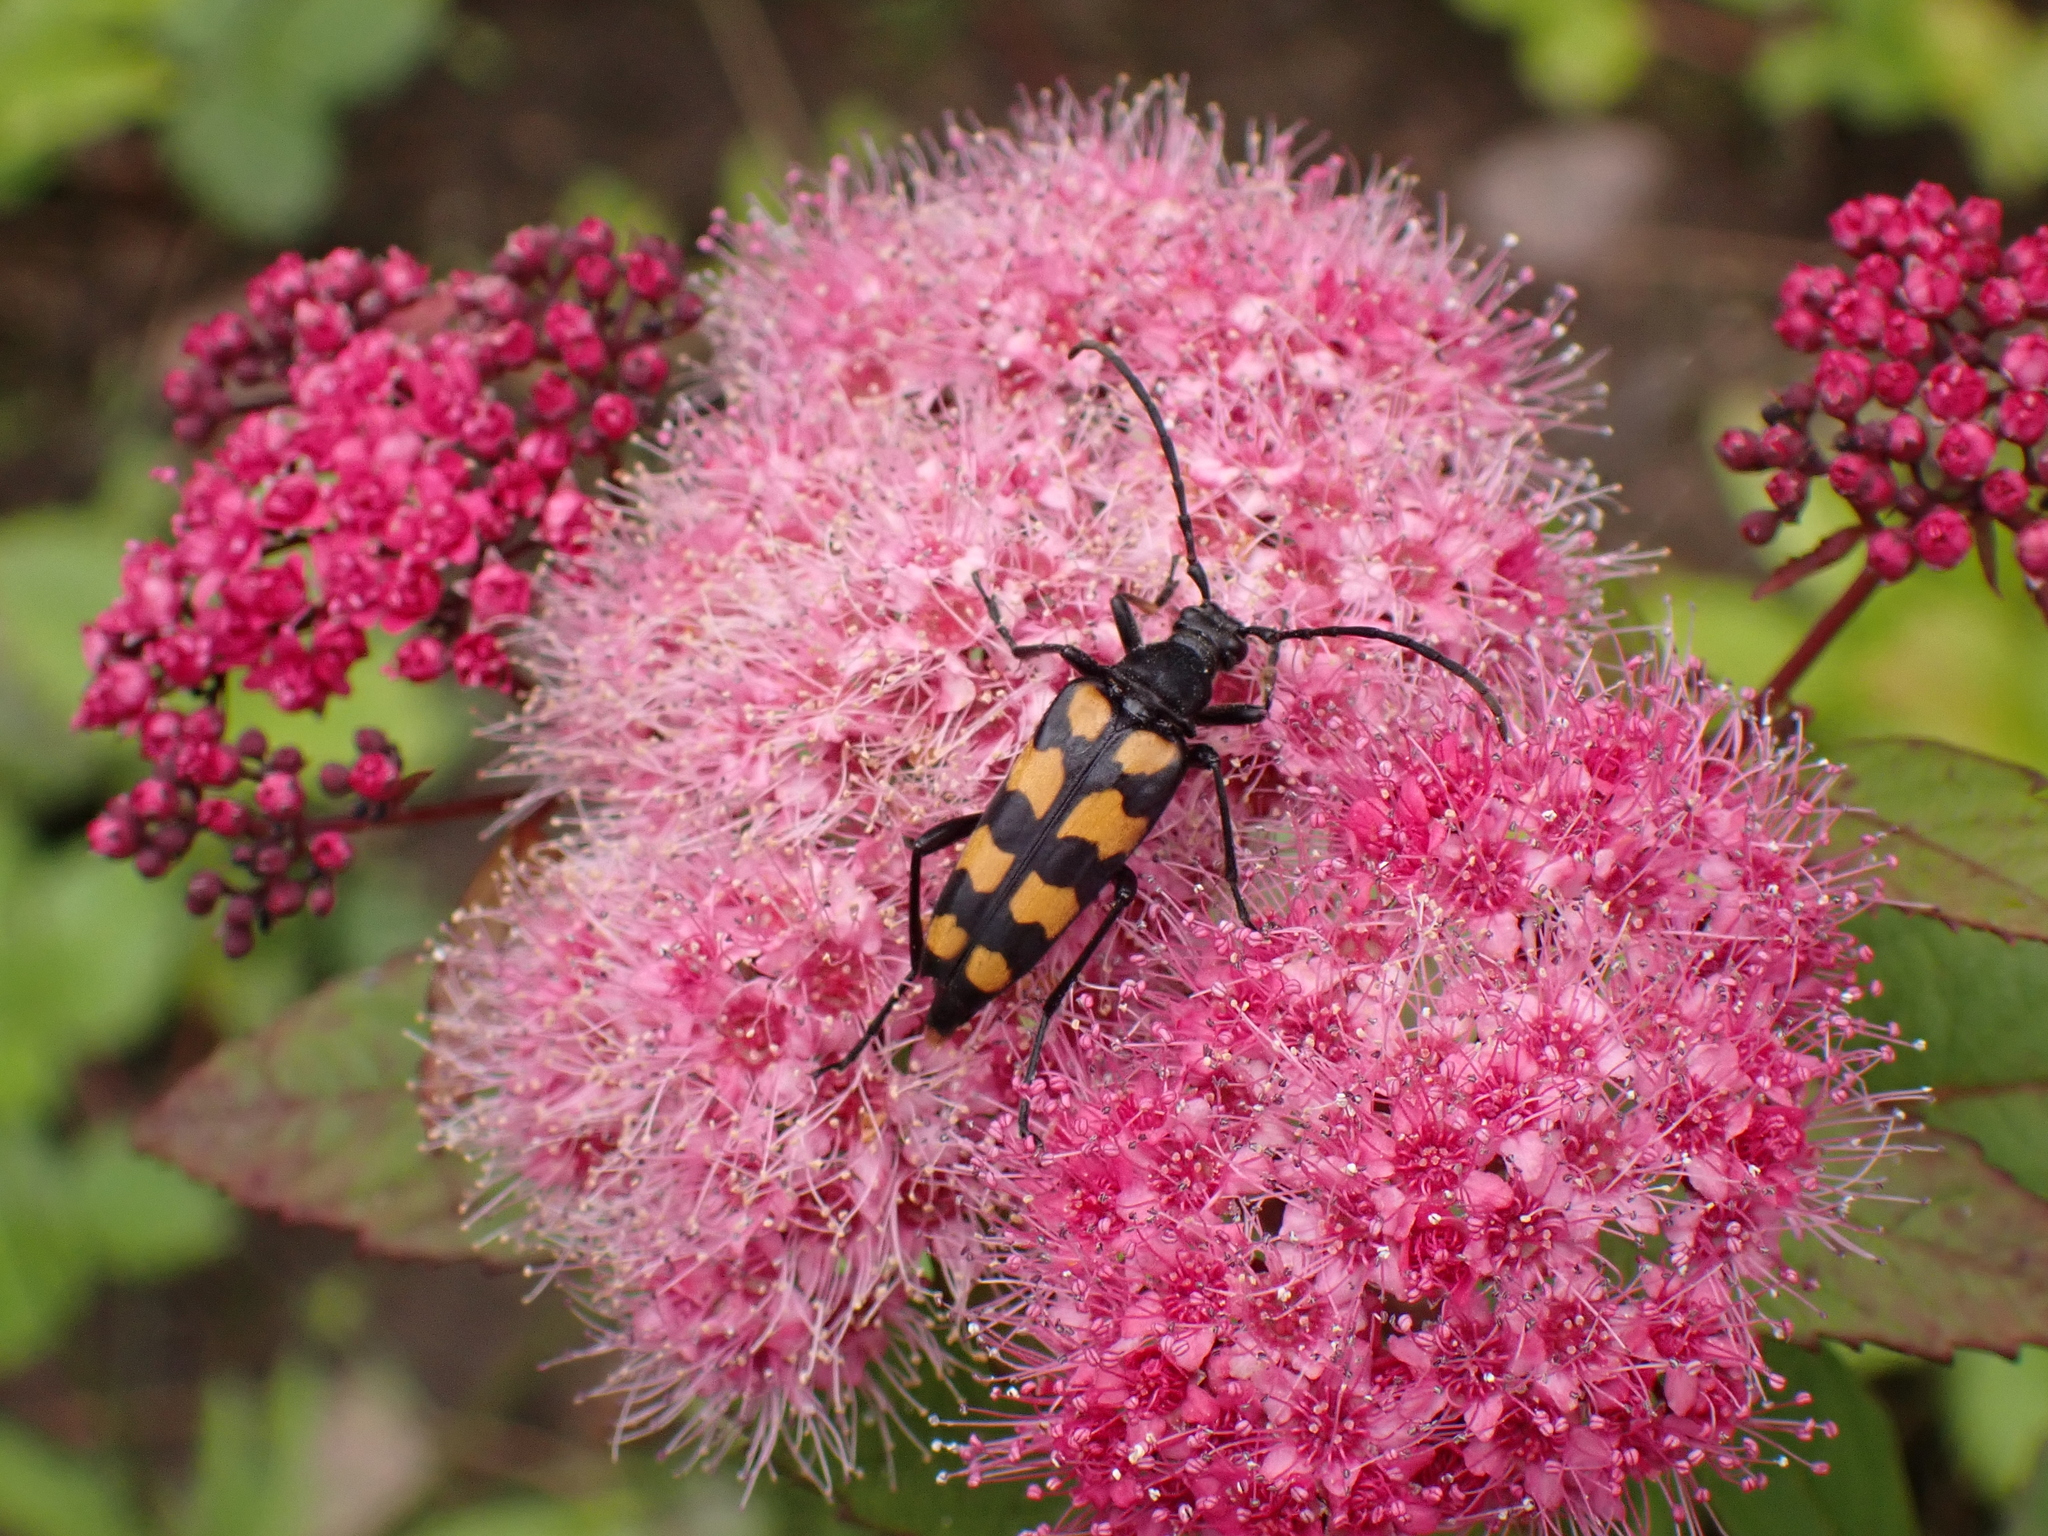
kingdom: Animalia
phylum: Arthropoda
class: Insecta
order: Coleoptera
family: Cerambycidae
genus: Leptura
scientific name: Leptura quadrifasciata
